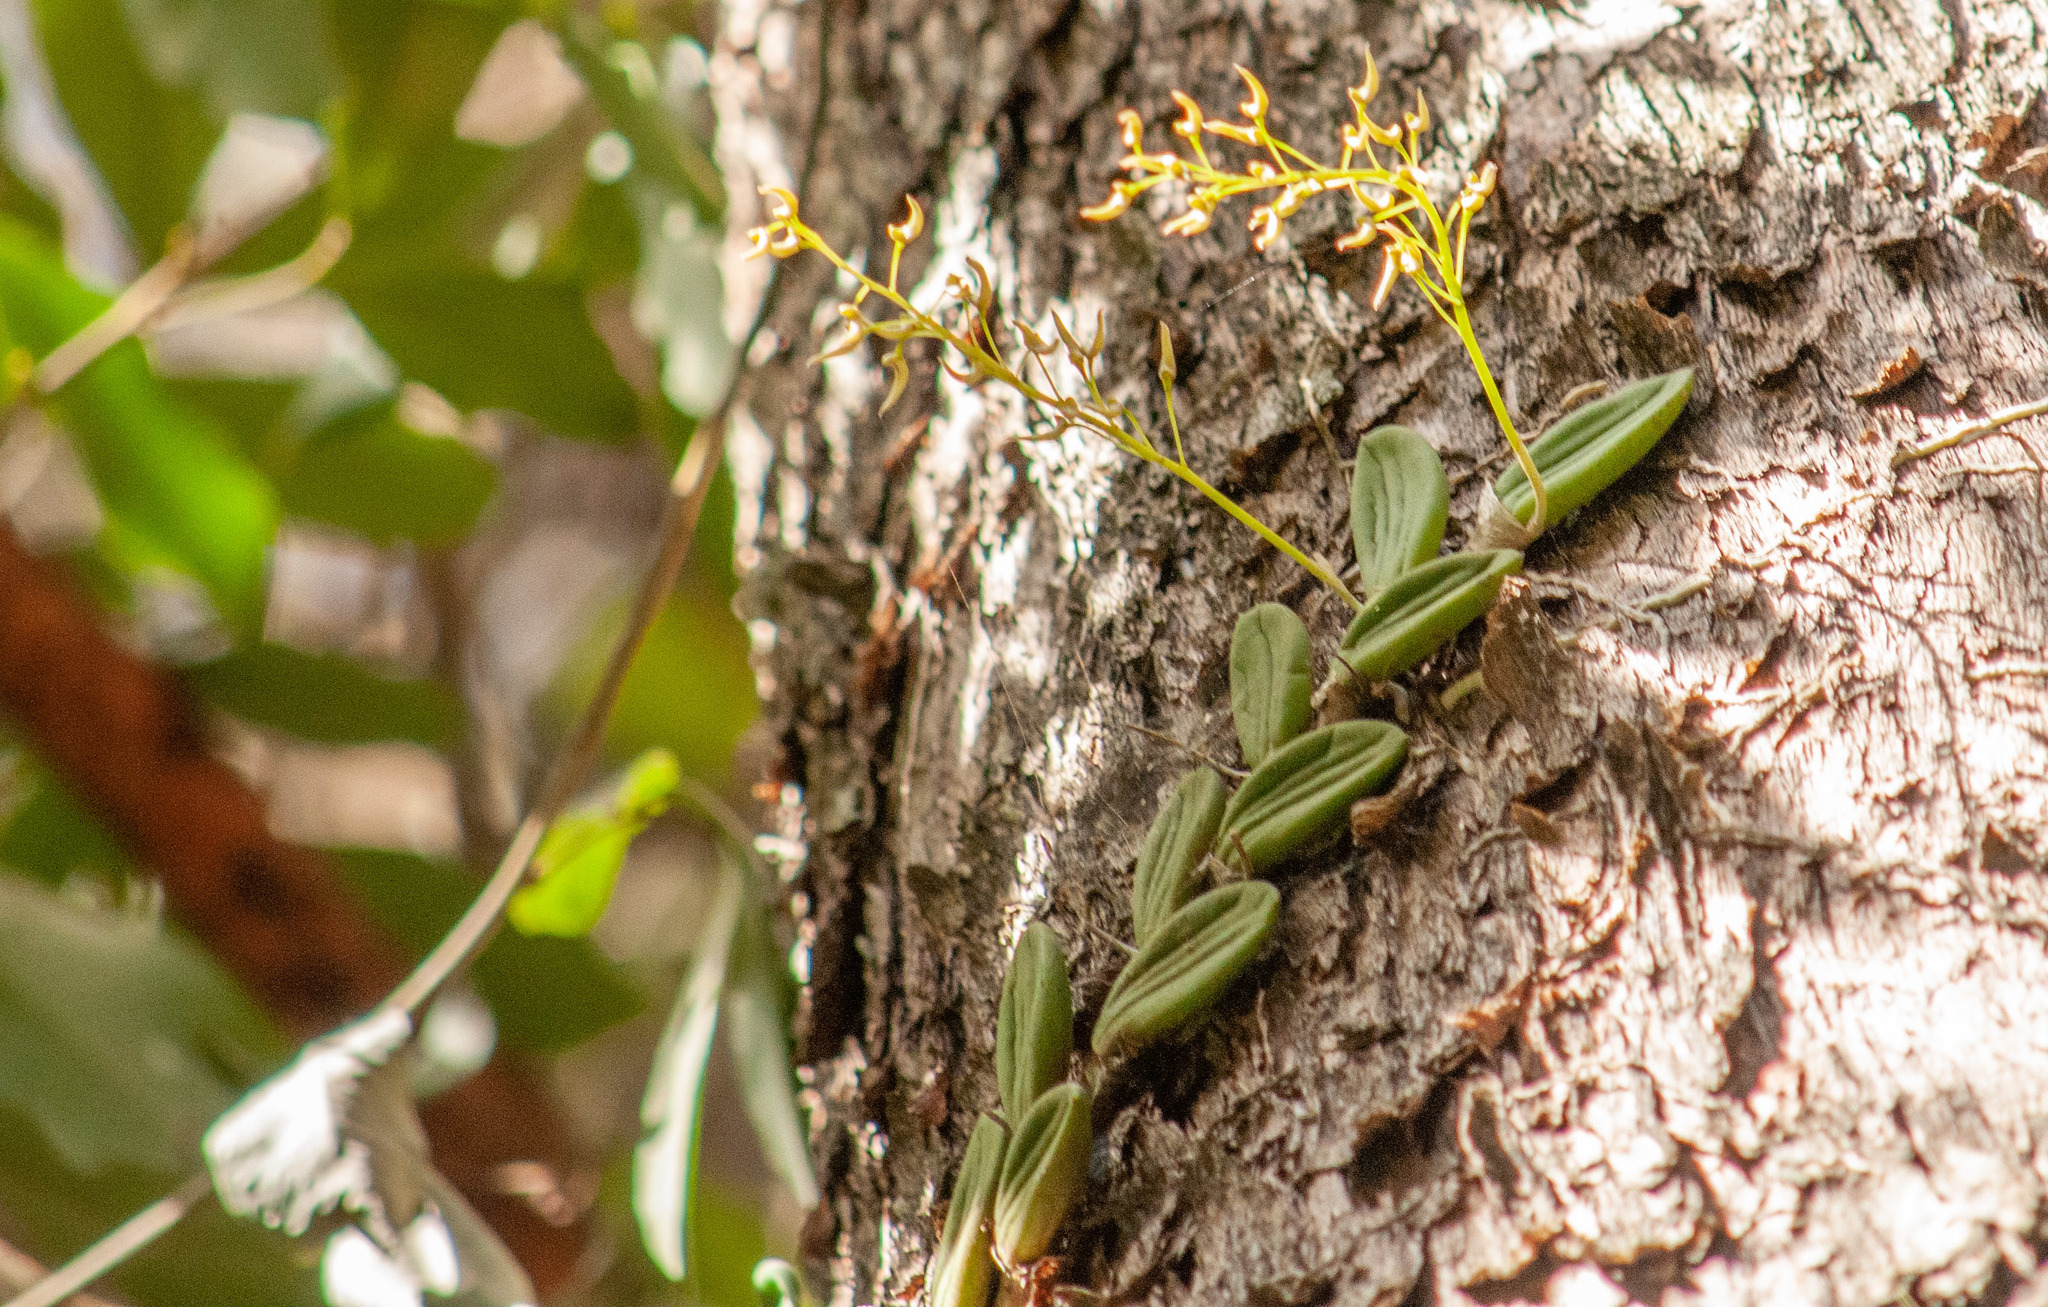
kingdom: Plantae
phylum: Tracheophyta
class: Liliopsida
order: Asparagales
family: Orchidaceae
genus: Dendrobium
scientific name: Dendrobium linguiforme
